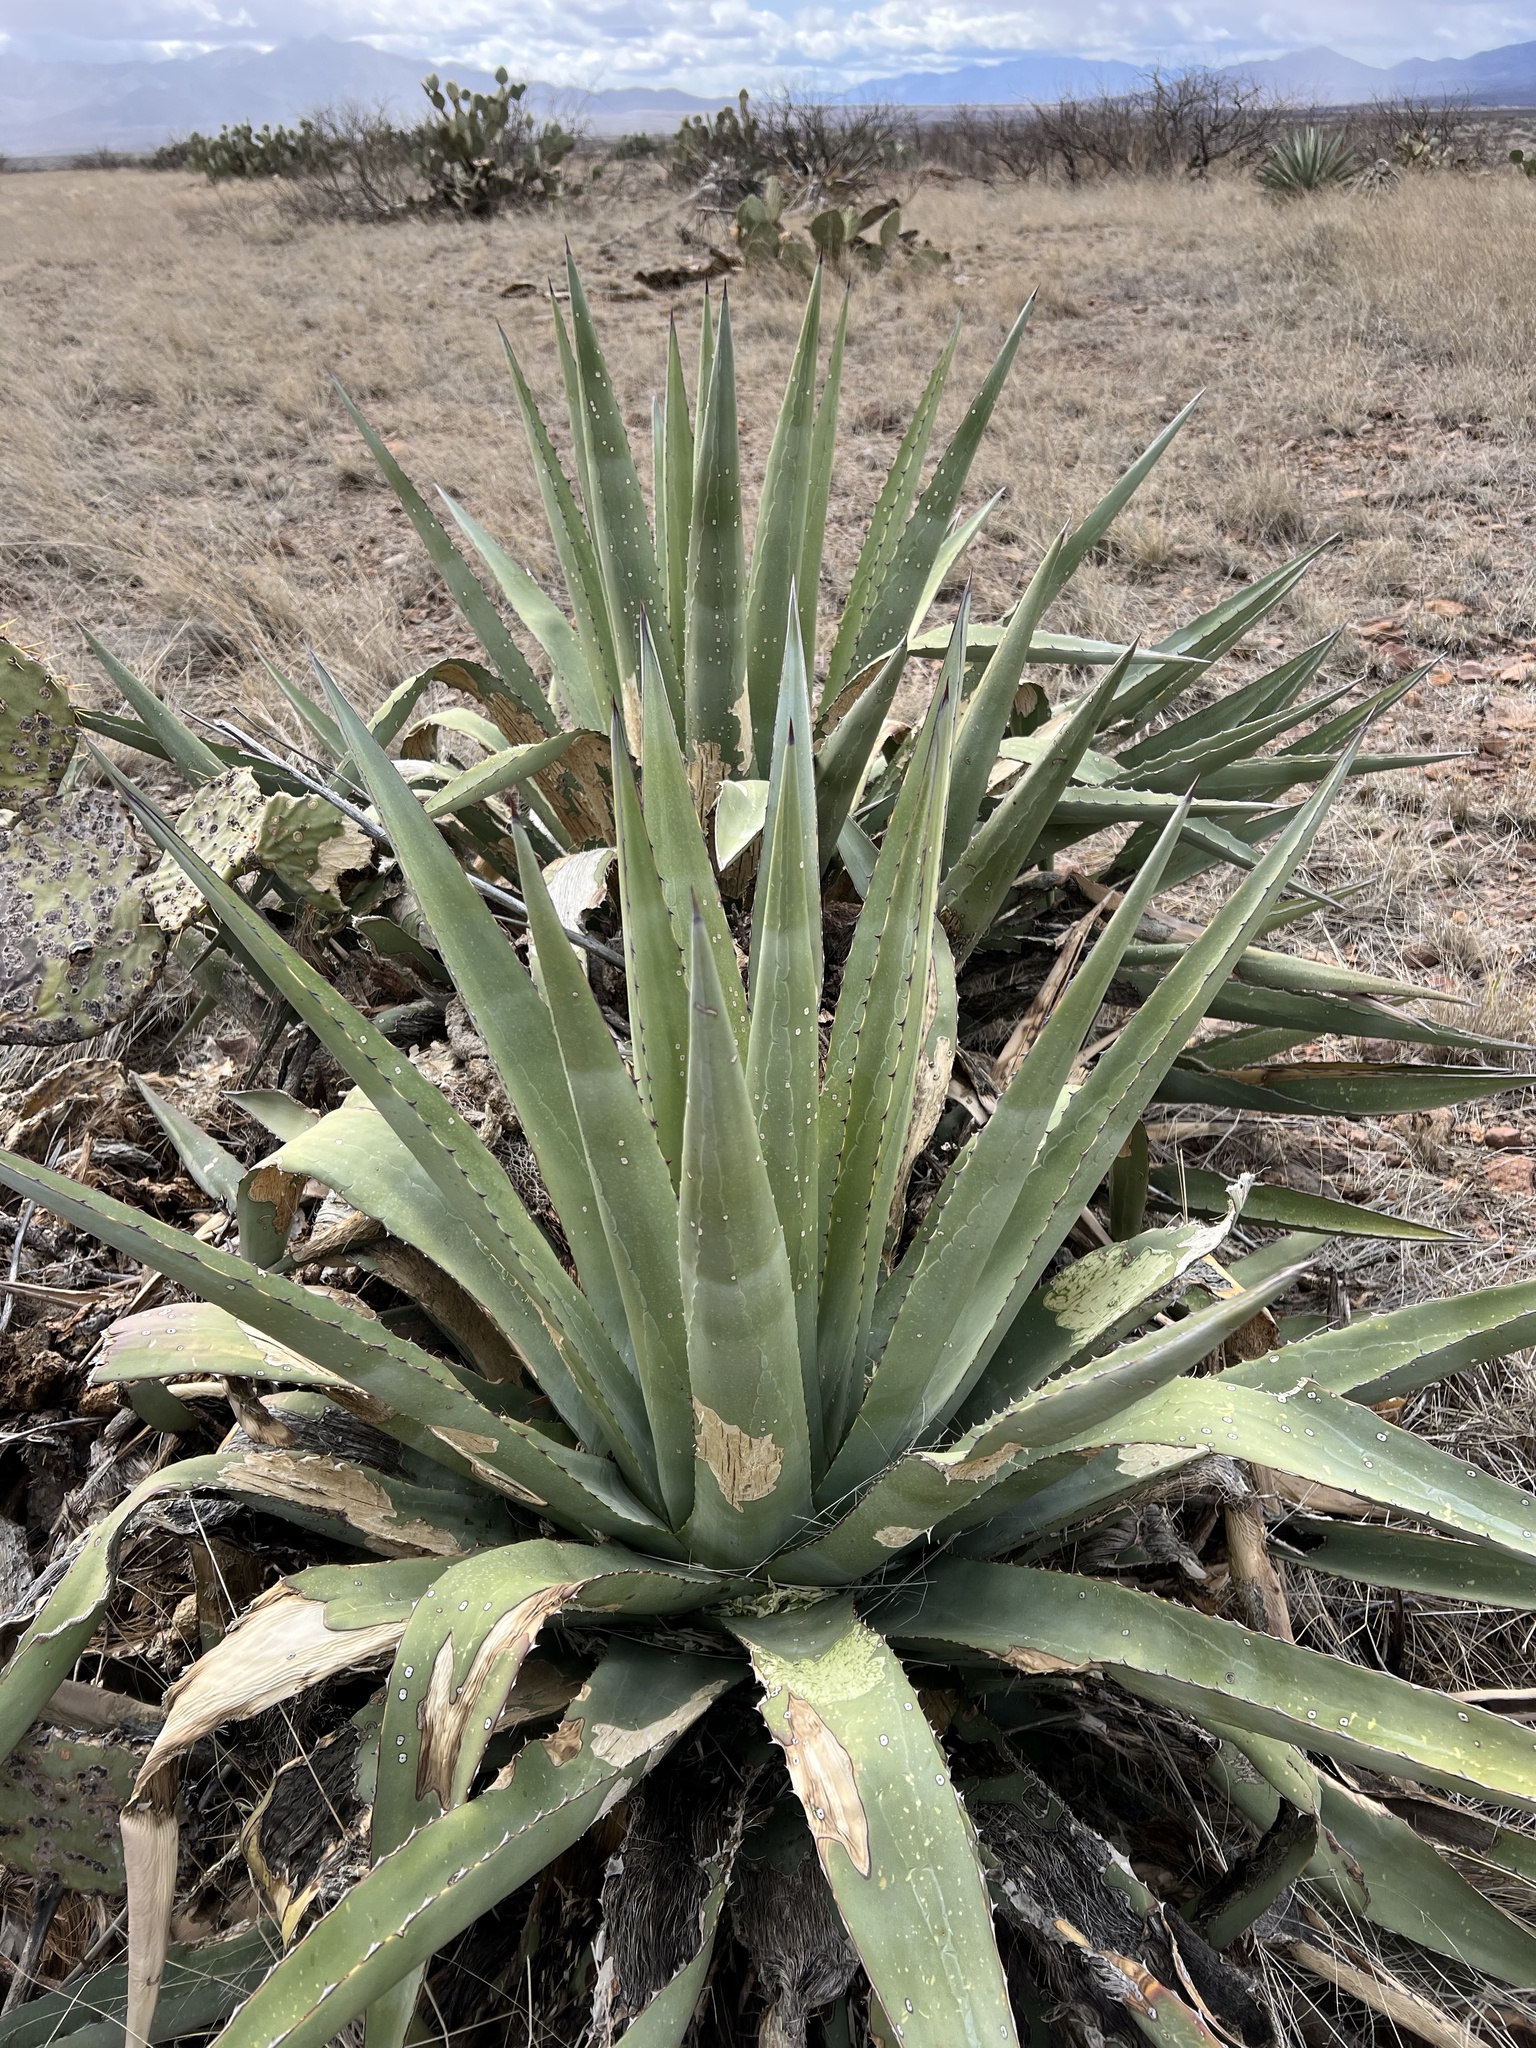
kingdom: Plantae
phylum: Tracheophyta
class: Liliopsida
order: Asparagales
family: Asparagaceae
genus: Agave
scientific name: Agave palmeri
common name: Palmer agave
